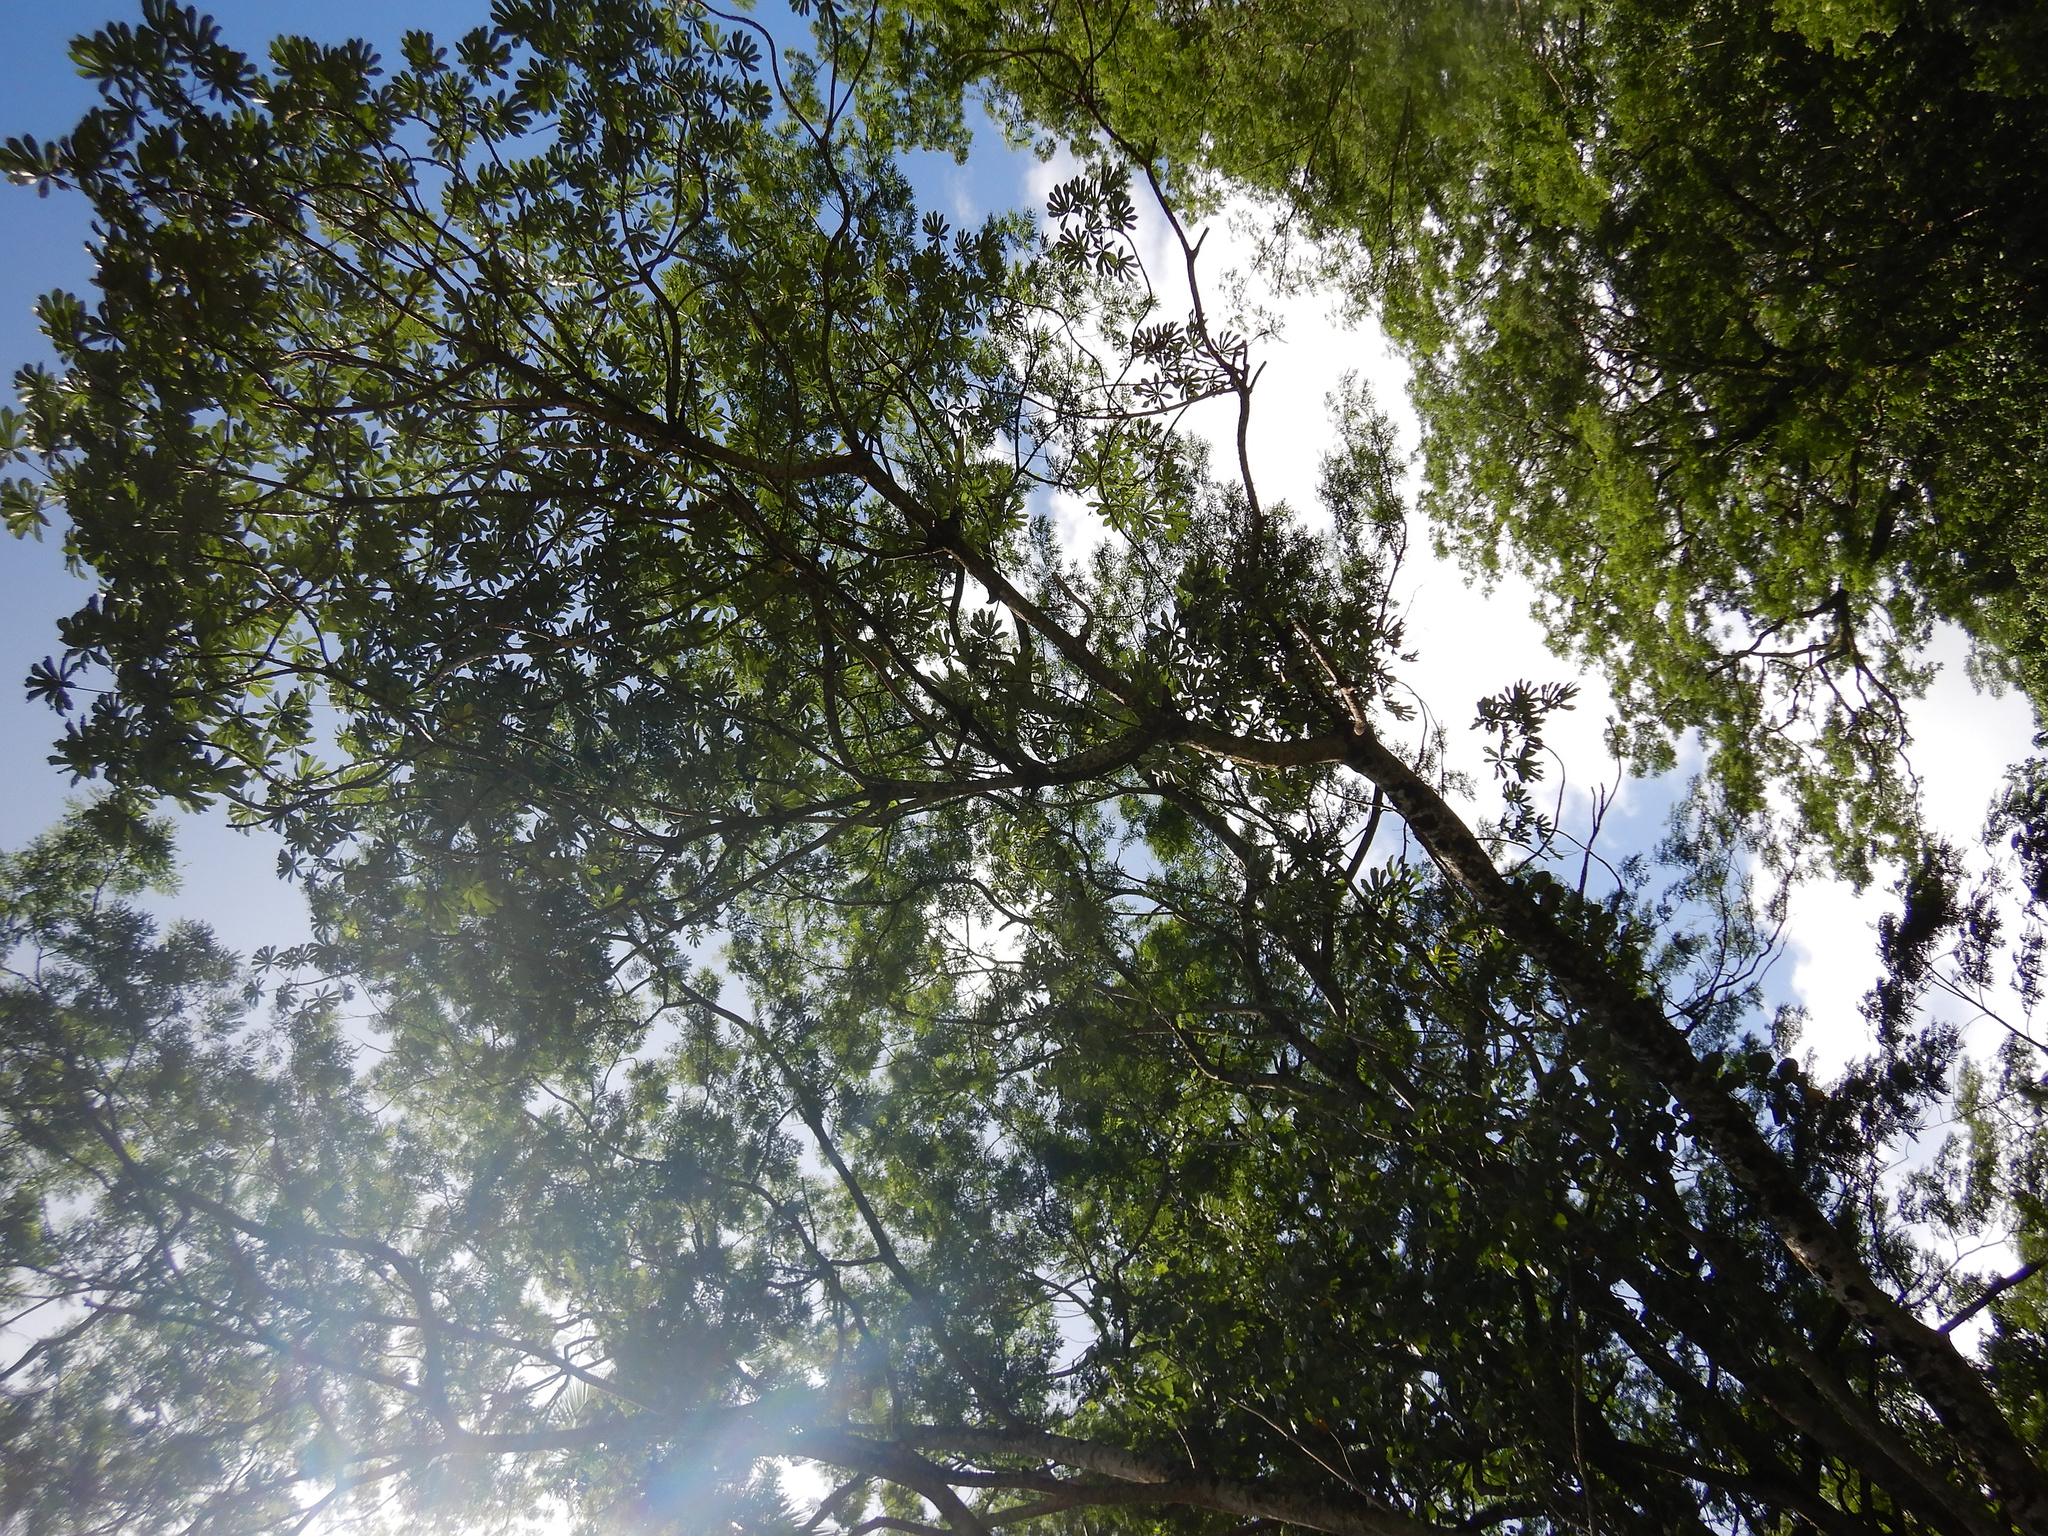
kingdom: Plantae
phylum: Tracheophyta
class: Magnoliopsida
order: Rosales
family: Urticaceae
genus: Cecropia
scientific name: Cecropia pachystachya
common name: Ambay pumpwood
